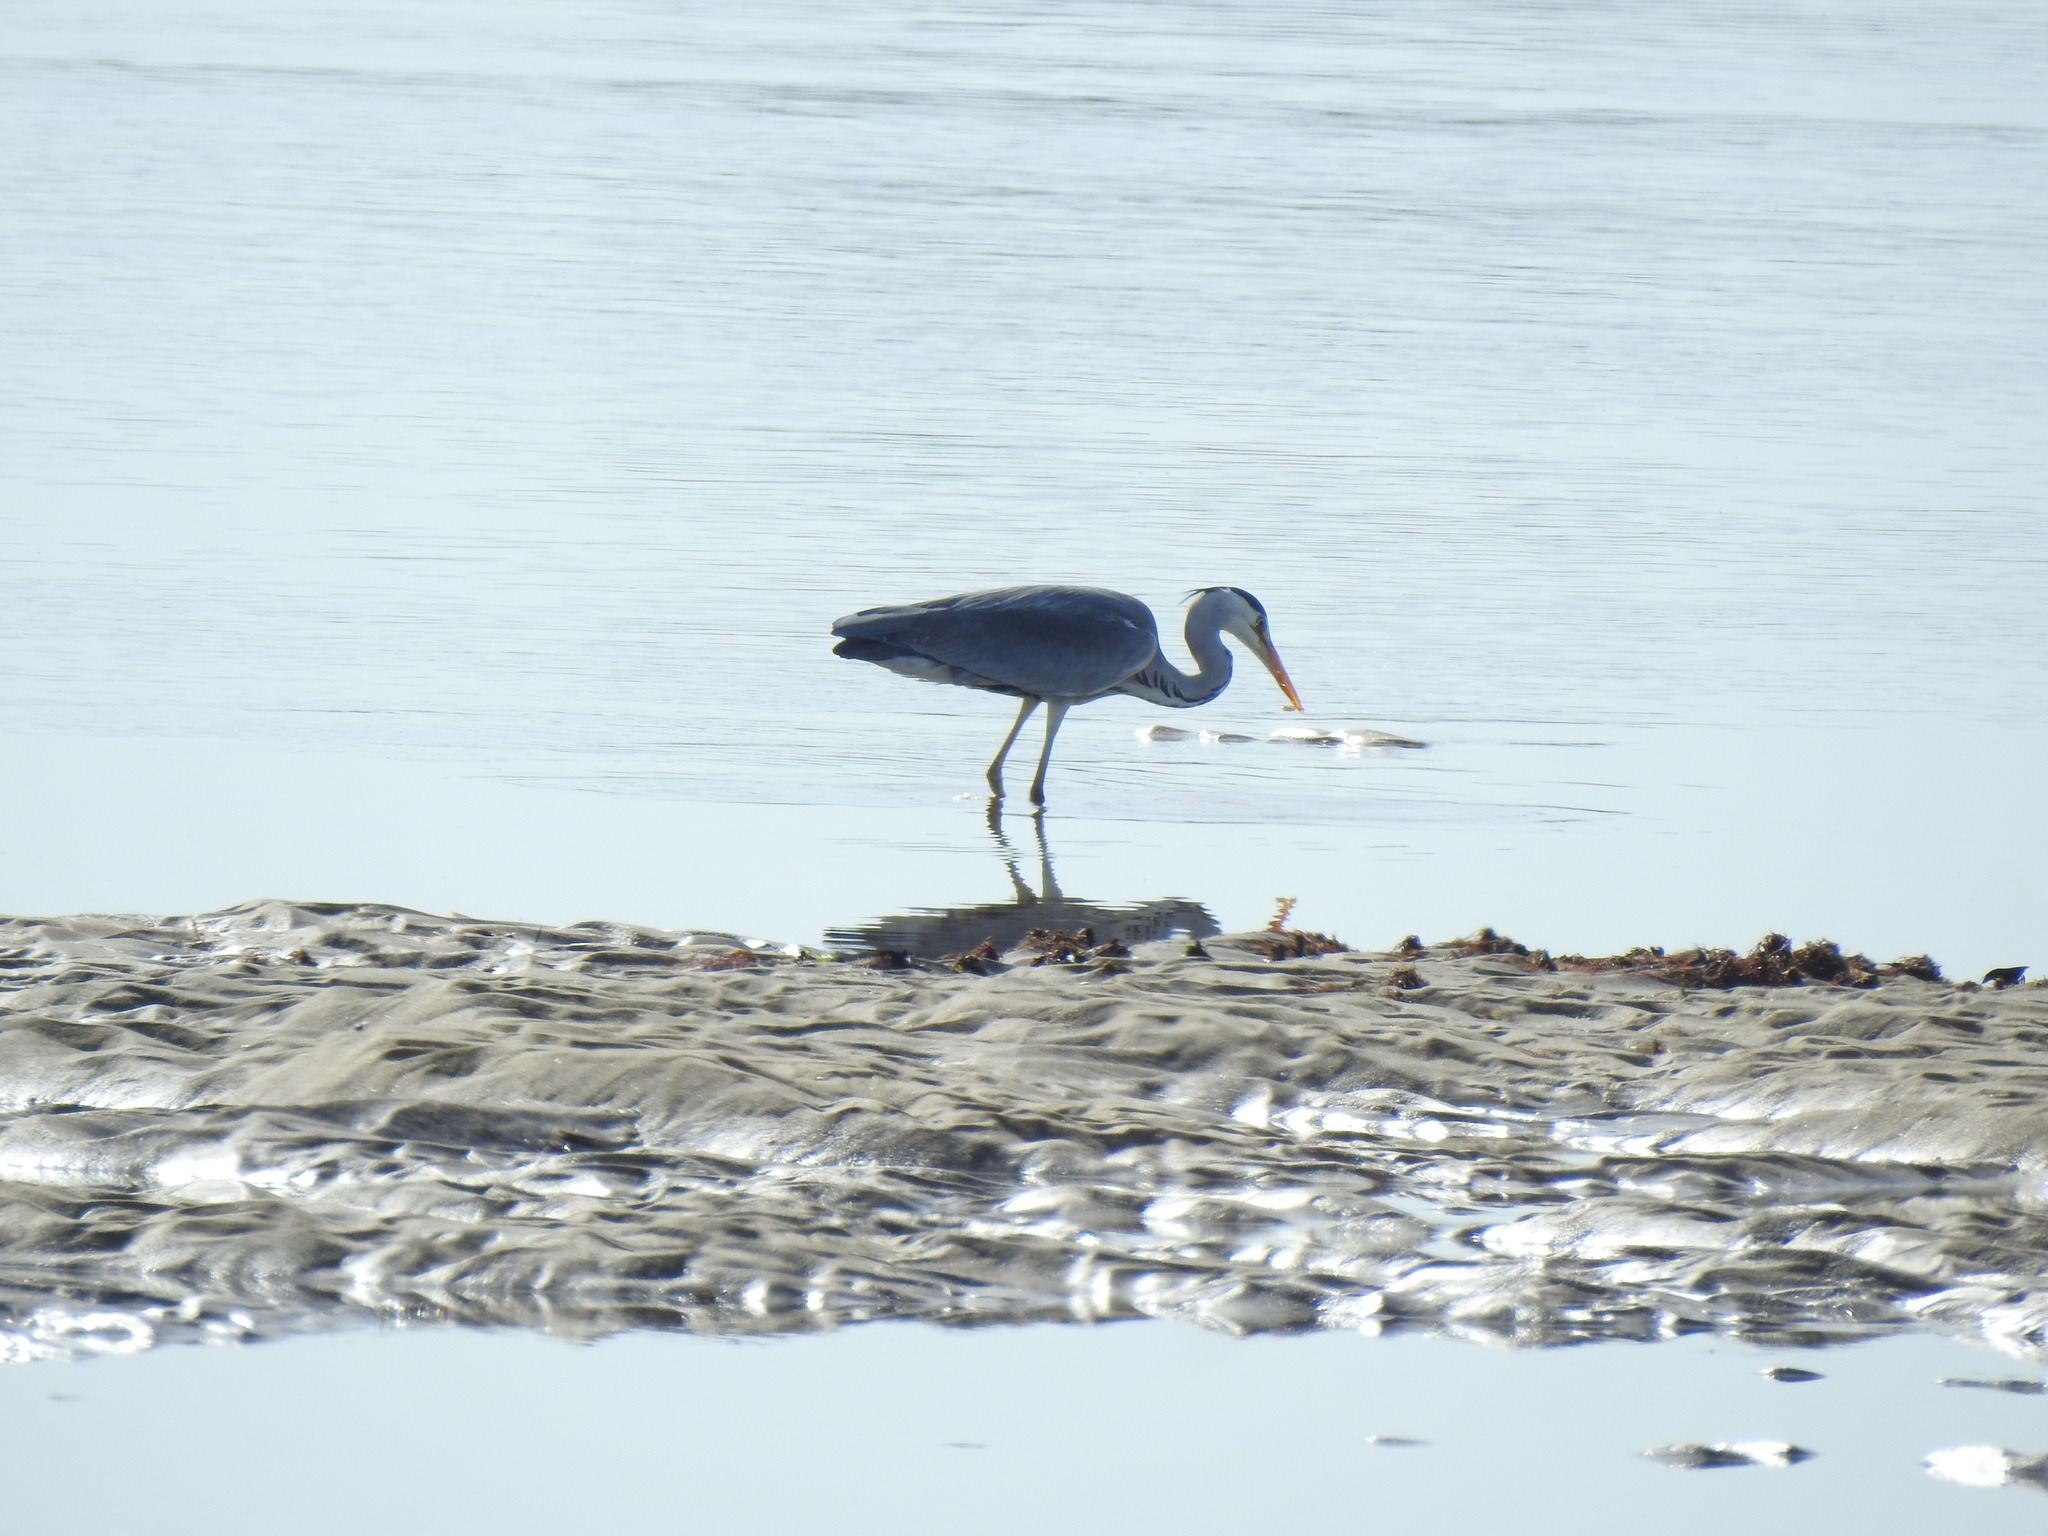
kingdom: Animalia
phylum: Chordata
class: Aves
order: Pelecaniformes
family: Ardeidae
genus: Ardea
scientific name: Ardea cinerea
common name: Grey heron
